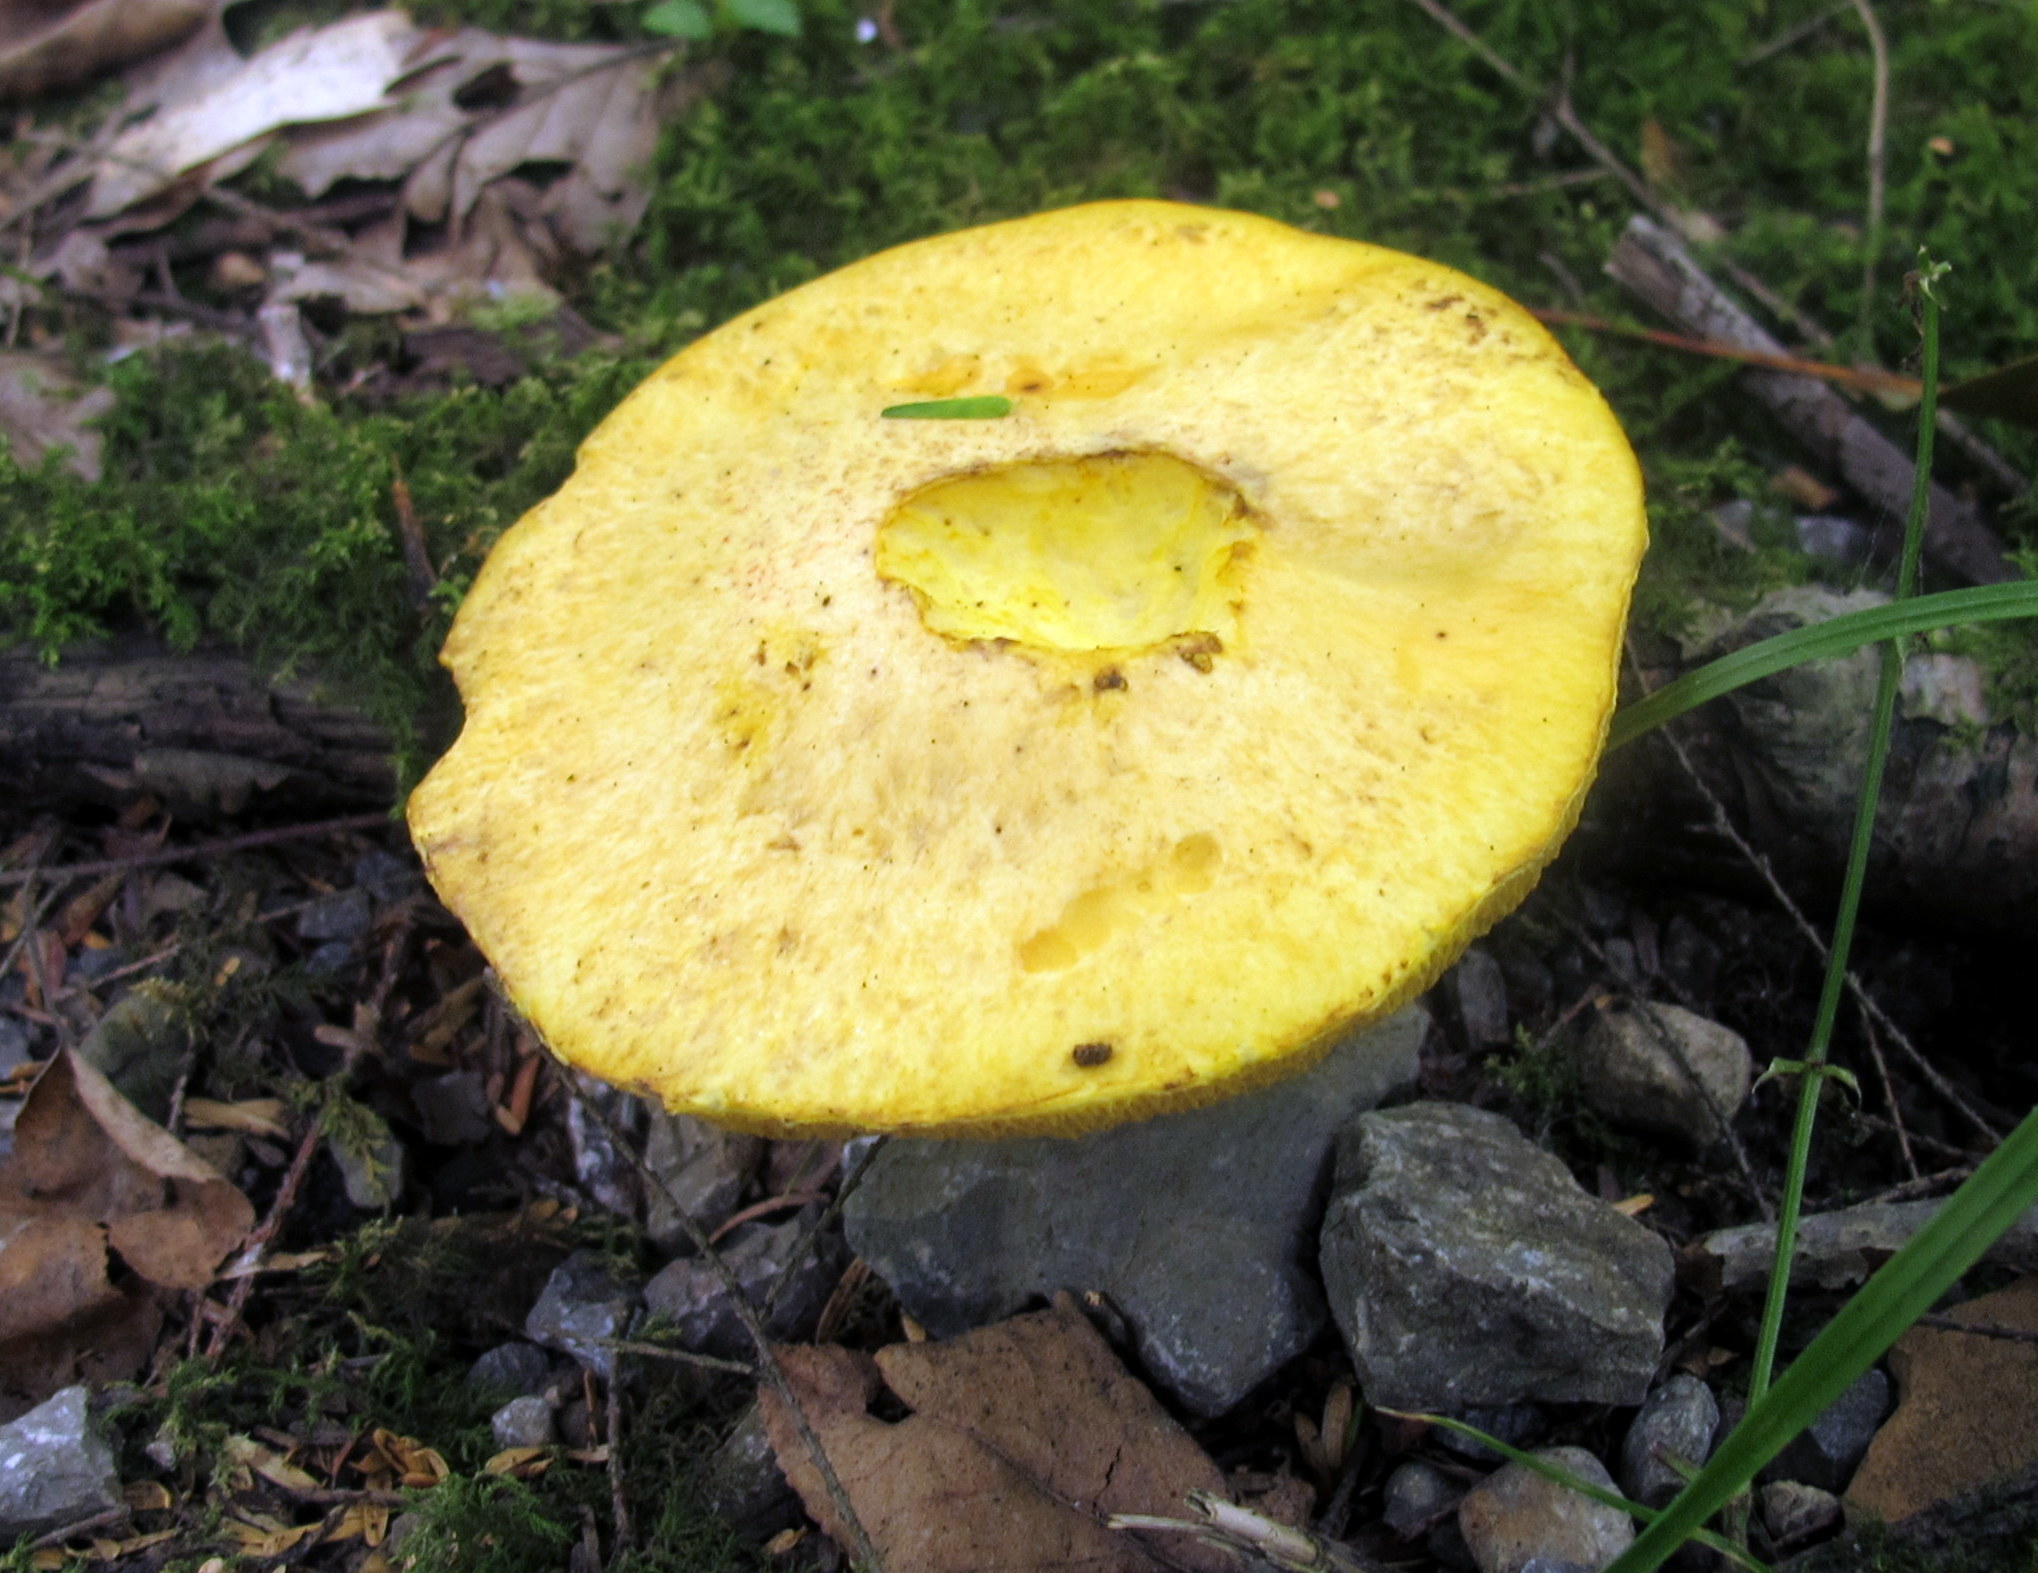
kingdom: Fungi
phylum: Basidiomycota
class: Agaricomycetes
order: Boletales
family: Suillaceae
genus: Suillus
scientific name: Suillus subaureus
